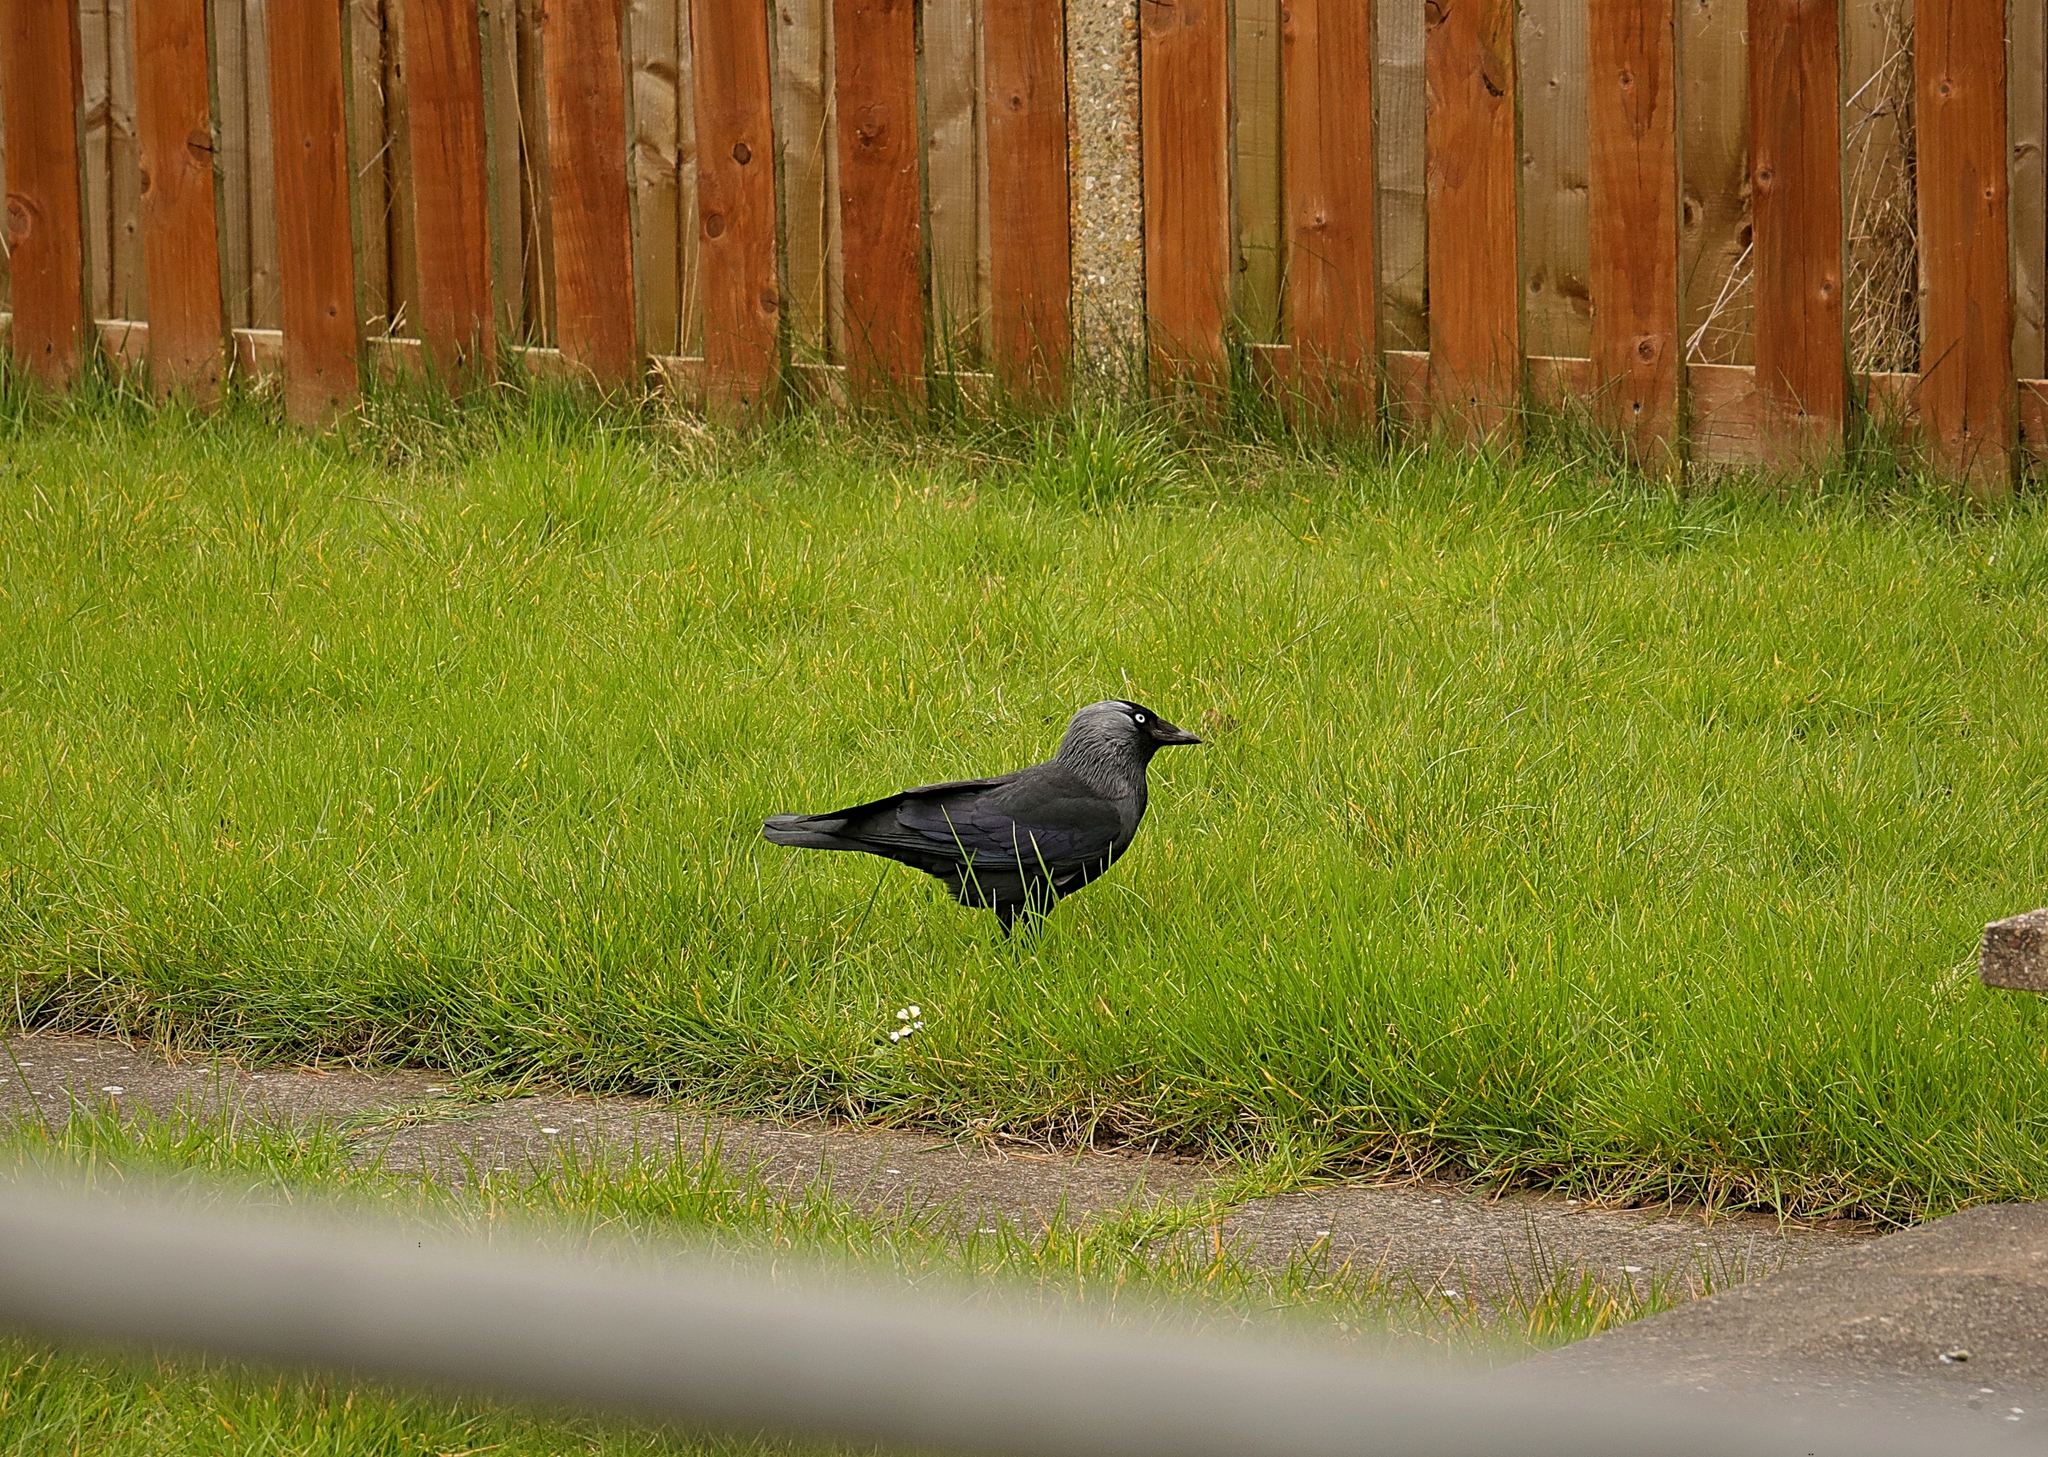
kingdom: Animalia
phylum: Chordata
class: Aves
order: Passeriformes
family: Corvidae
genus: Coloeus
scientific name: Coloeus monedula
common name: Western jackdaw
